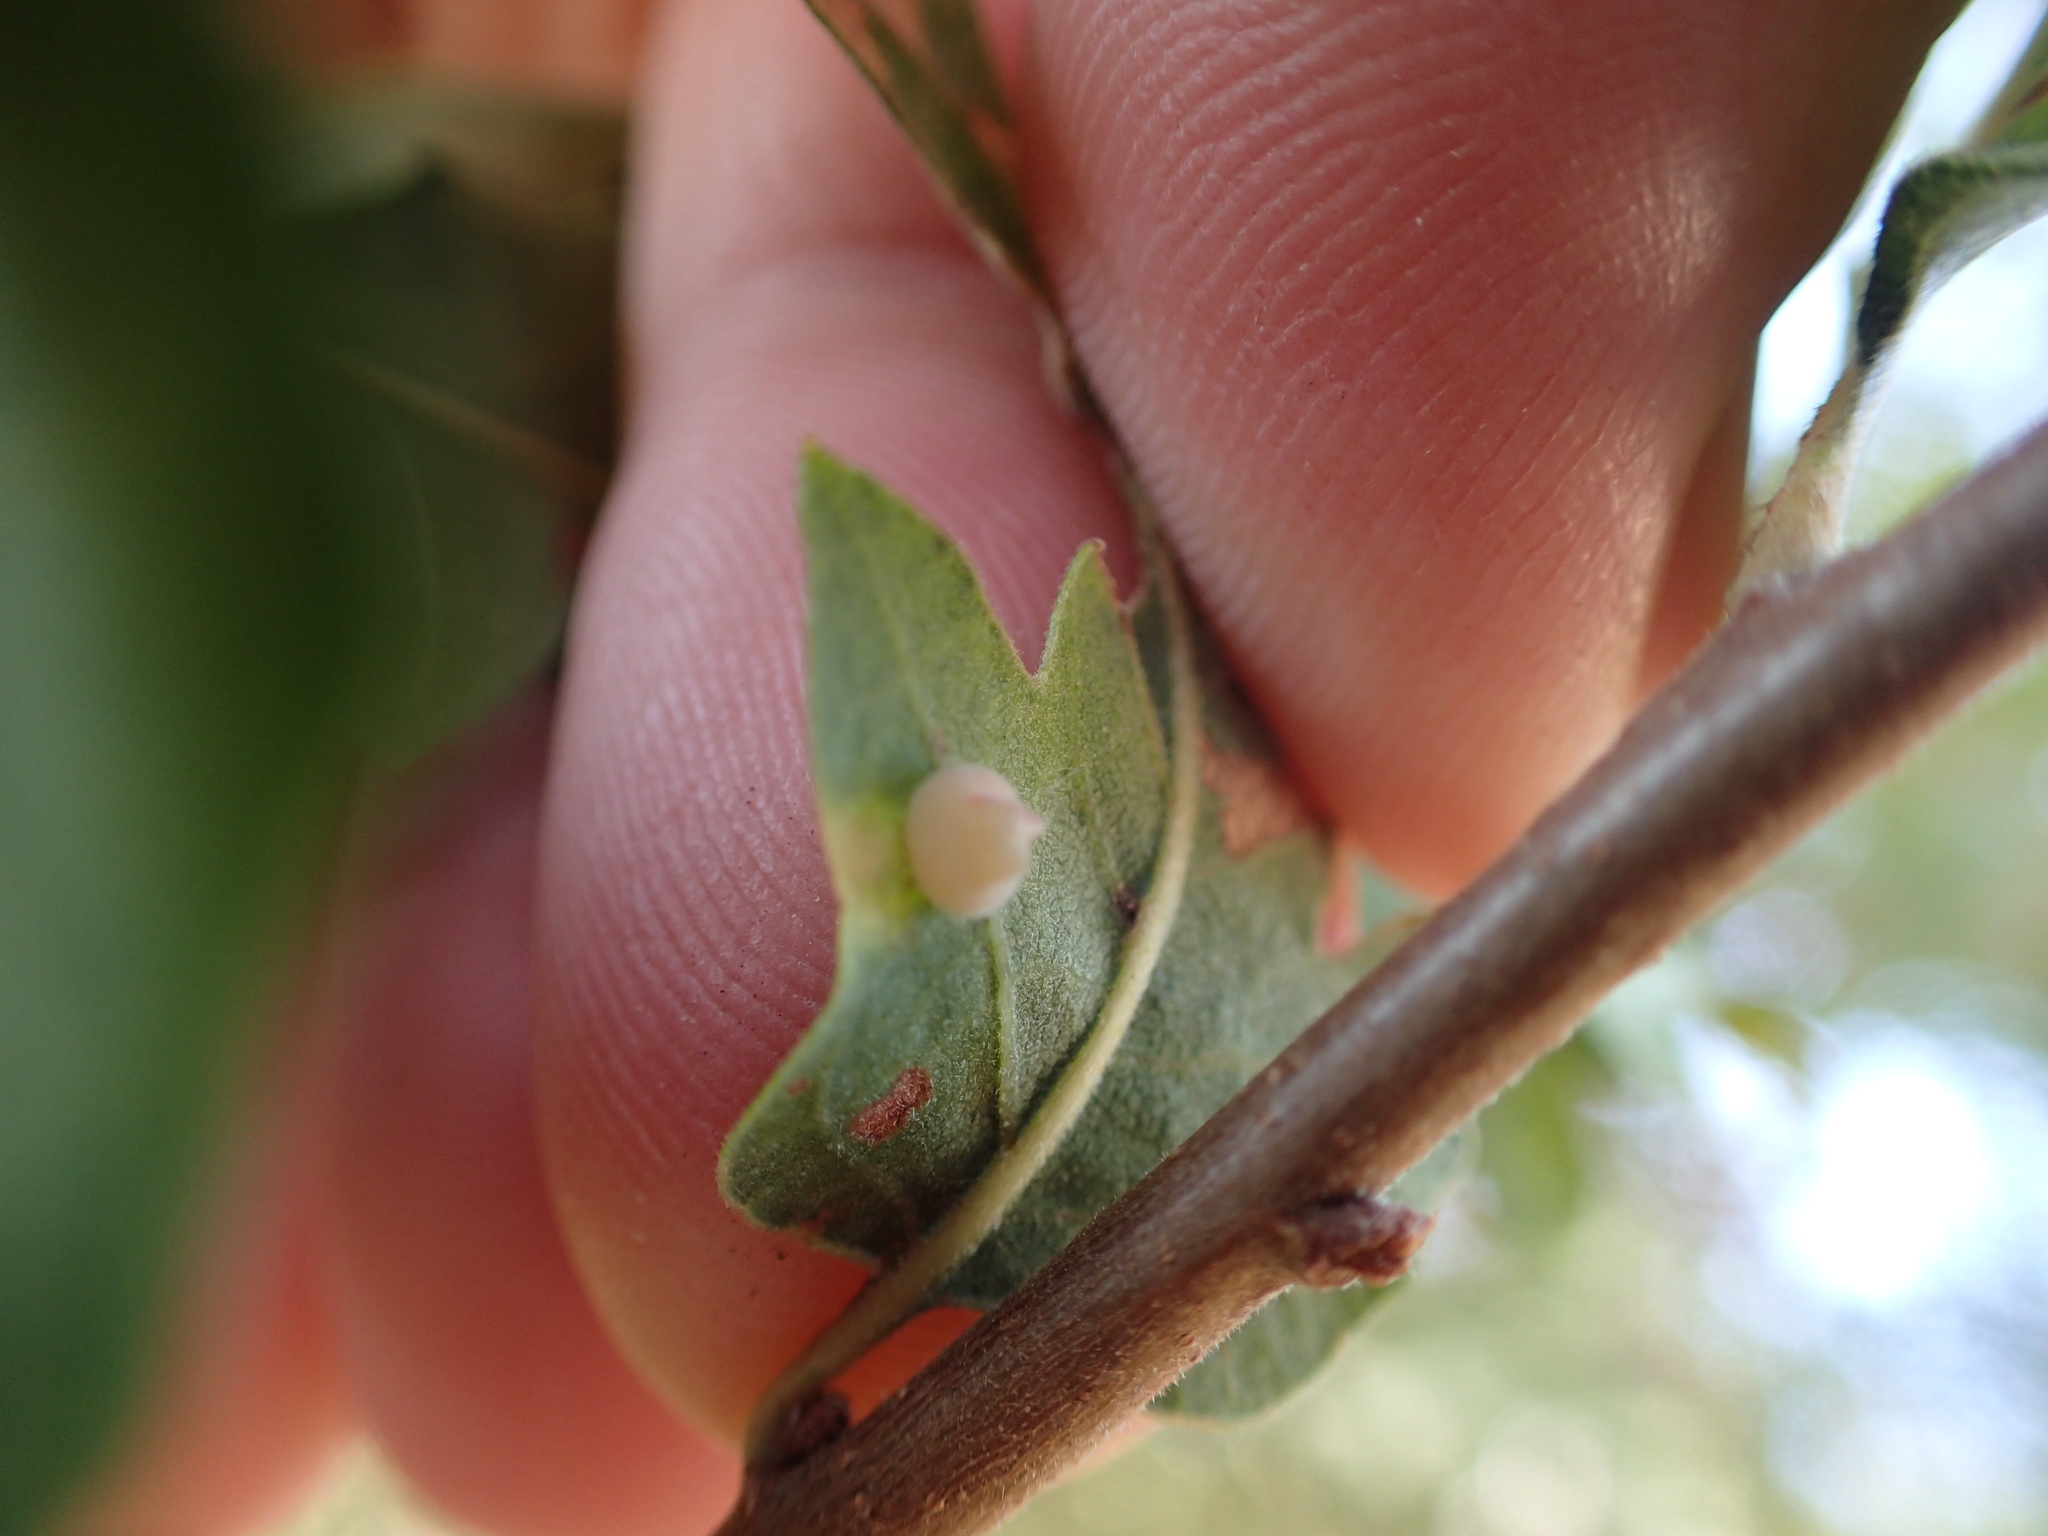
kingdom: Animalia
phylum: Arthropoda
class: Insecta
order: Hymenoptera
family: Cynipidae
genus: Andricus
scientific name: Andricus
